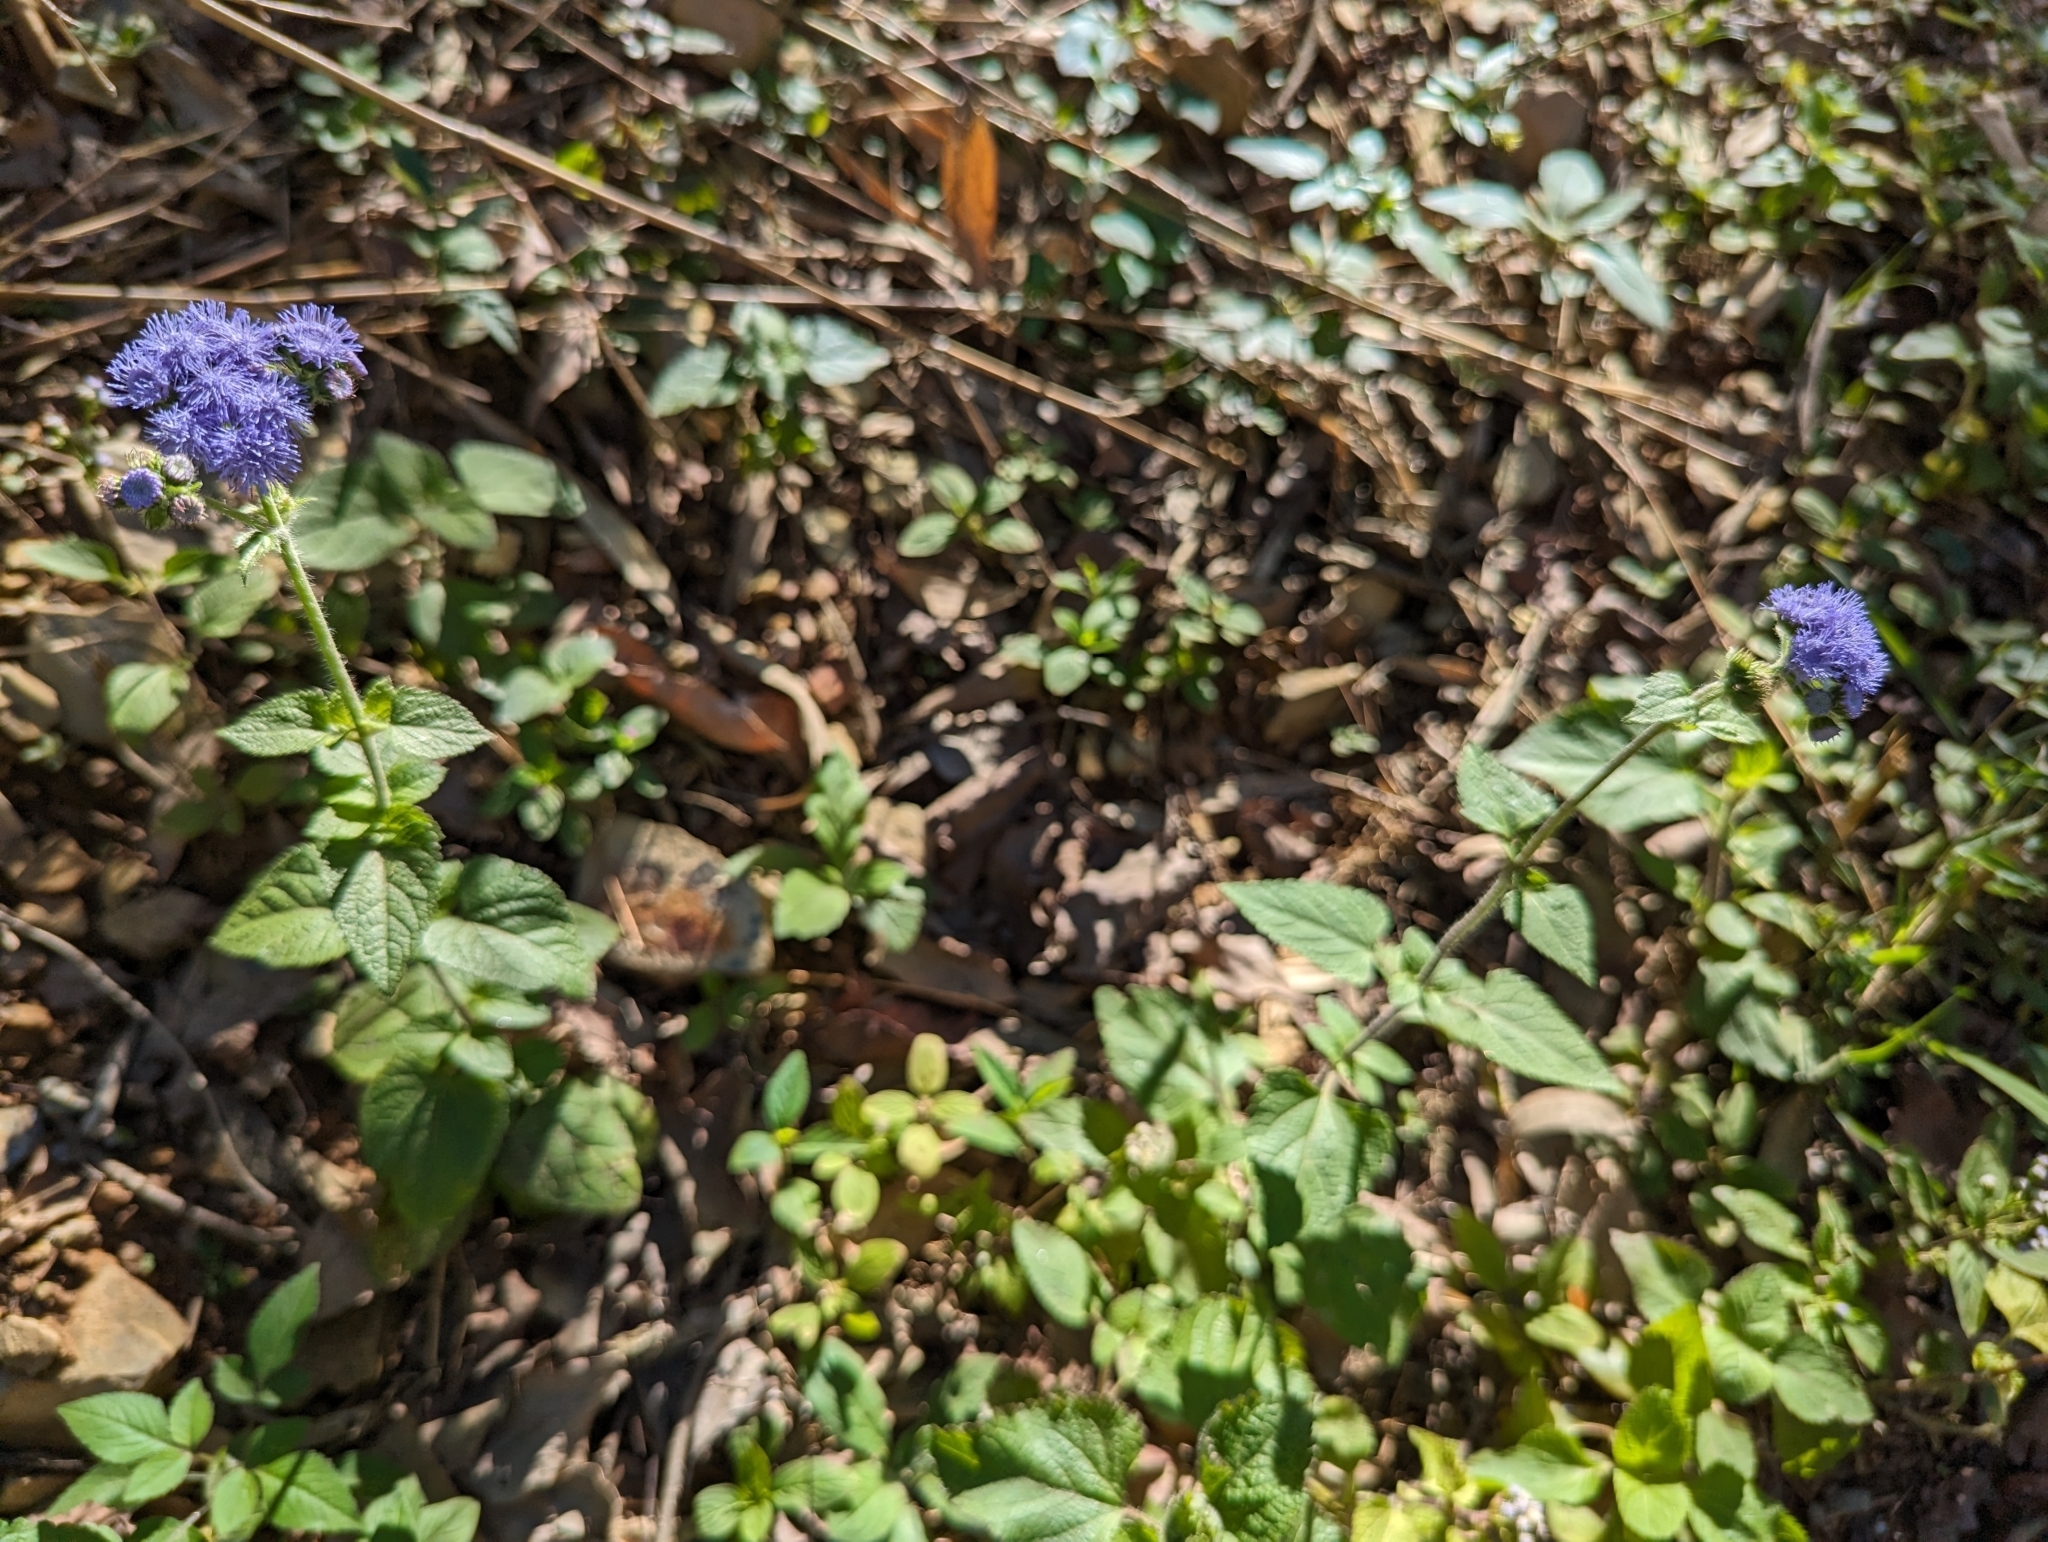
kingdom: Plantae
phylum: Tracheophyta
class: Magnoliopsida
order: Asterales
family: Asteraceae
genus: Ageratum
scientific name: Ageratum houstonianum
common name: Bluemink
